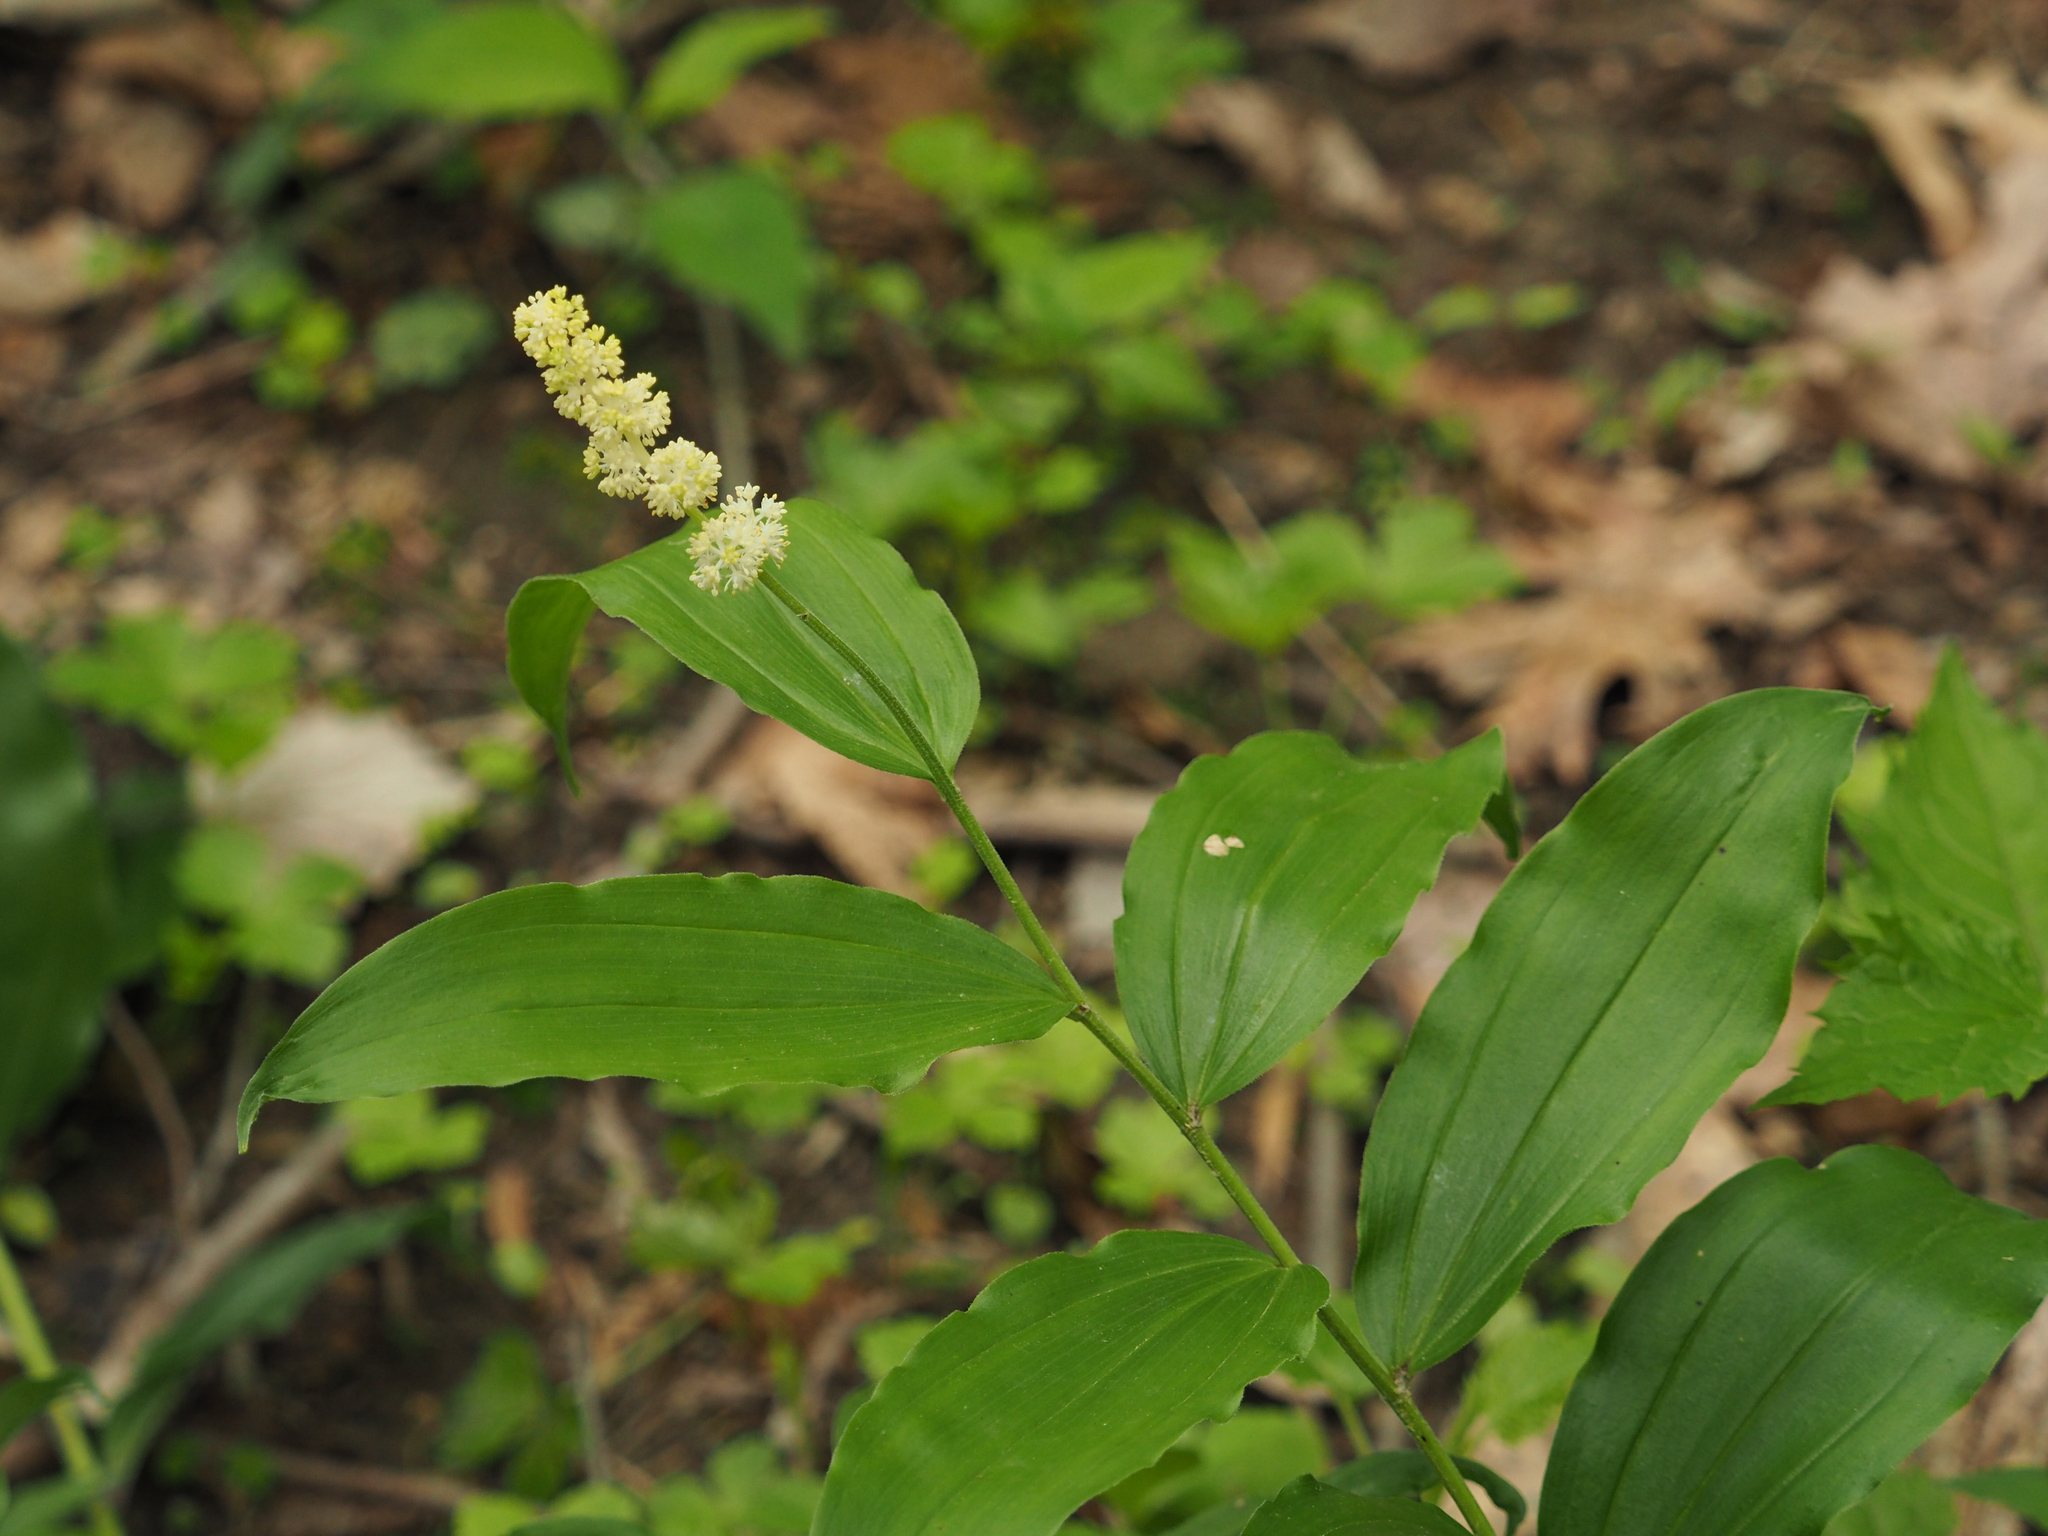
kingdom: Plantae
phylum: Tracheophyta
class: Liliopsida
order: Asparagales
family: Asparagaceae
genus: Maianthemum
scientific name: Maianthemum racemosum
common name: False spikenard
